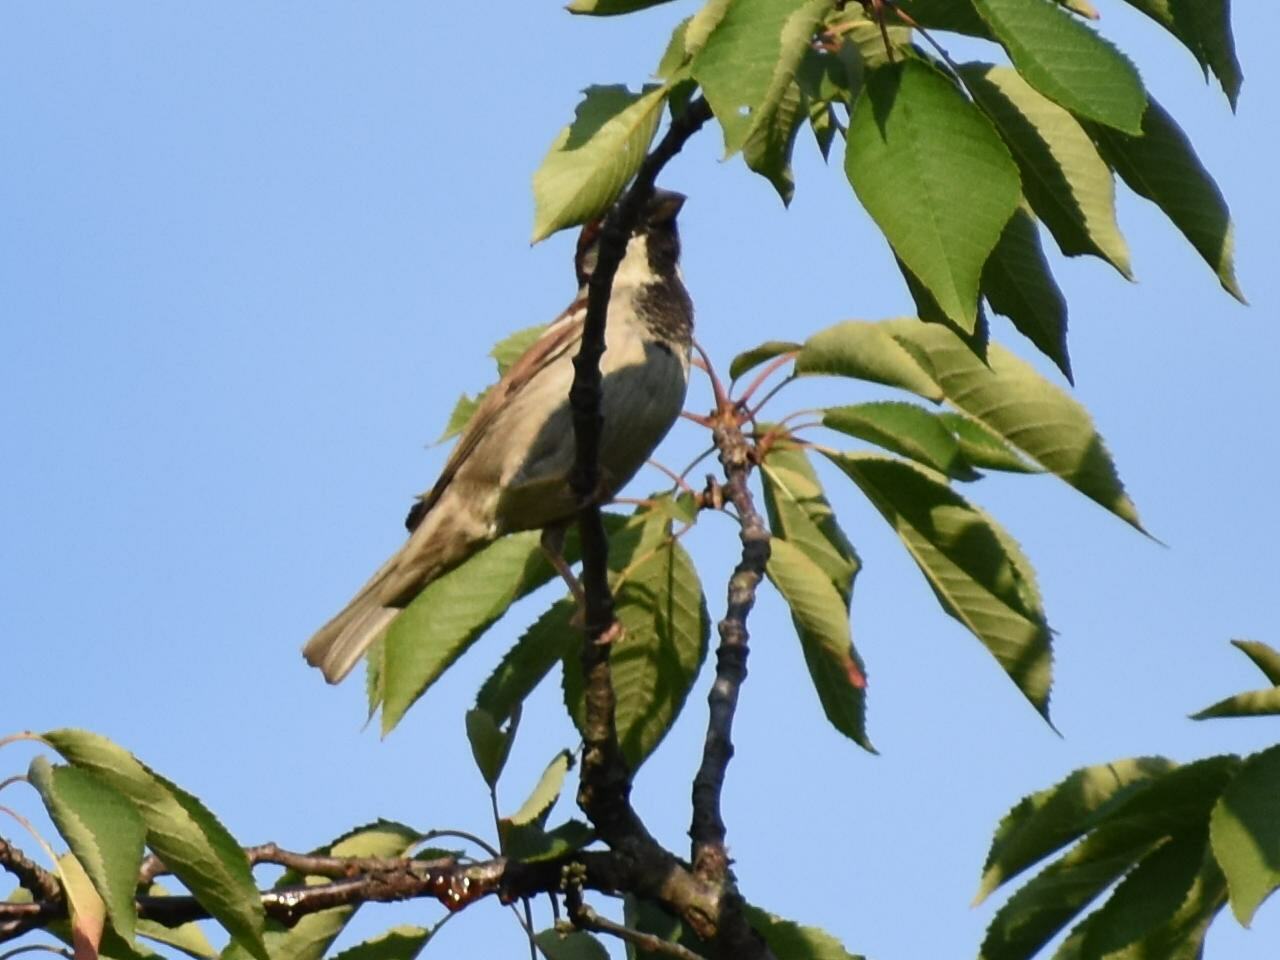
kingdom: Animalia
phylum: Chordata
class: Aves
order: Passeriformes
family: Passeridae
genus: Passer
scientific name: Passer domesticus
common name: House sparrow
